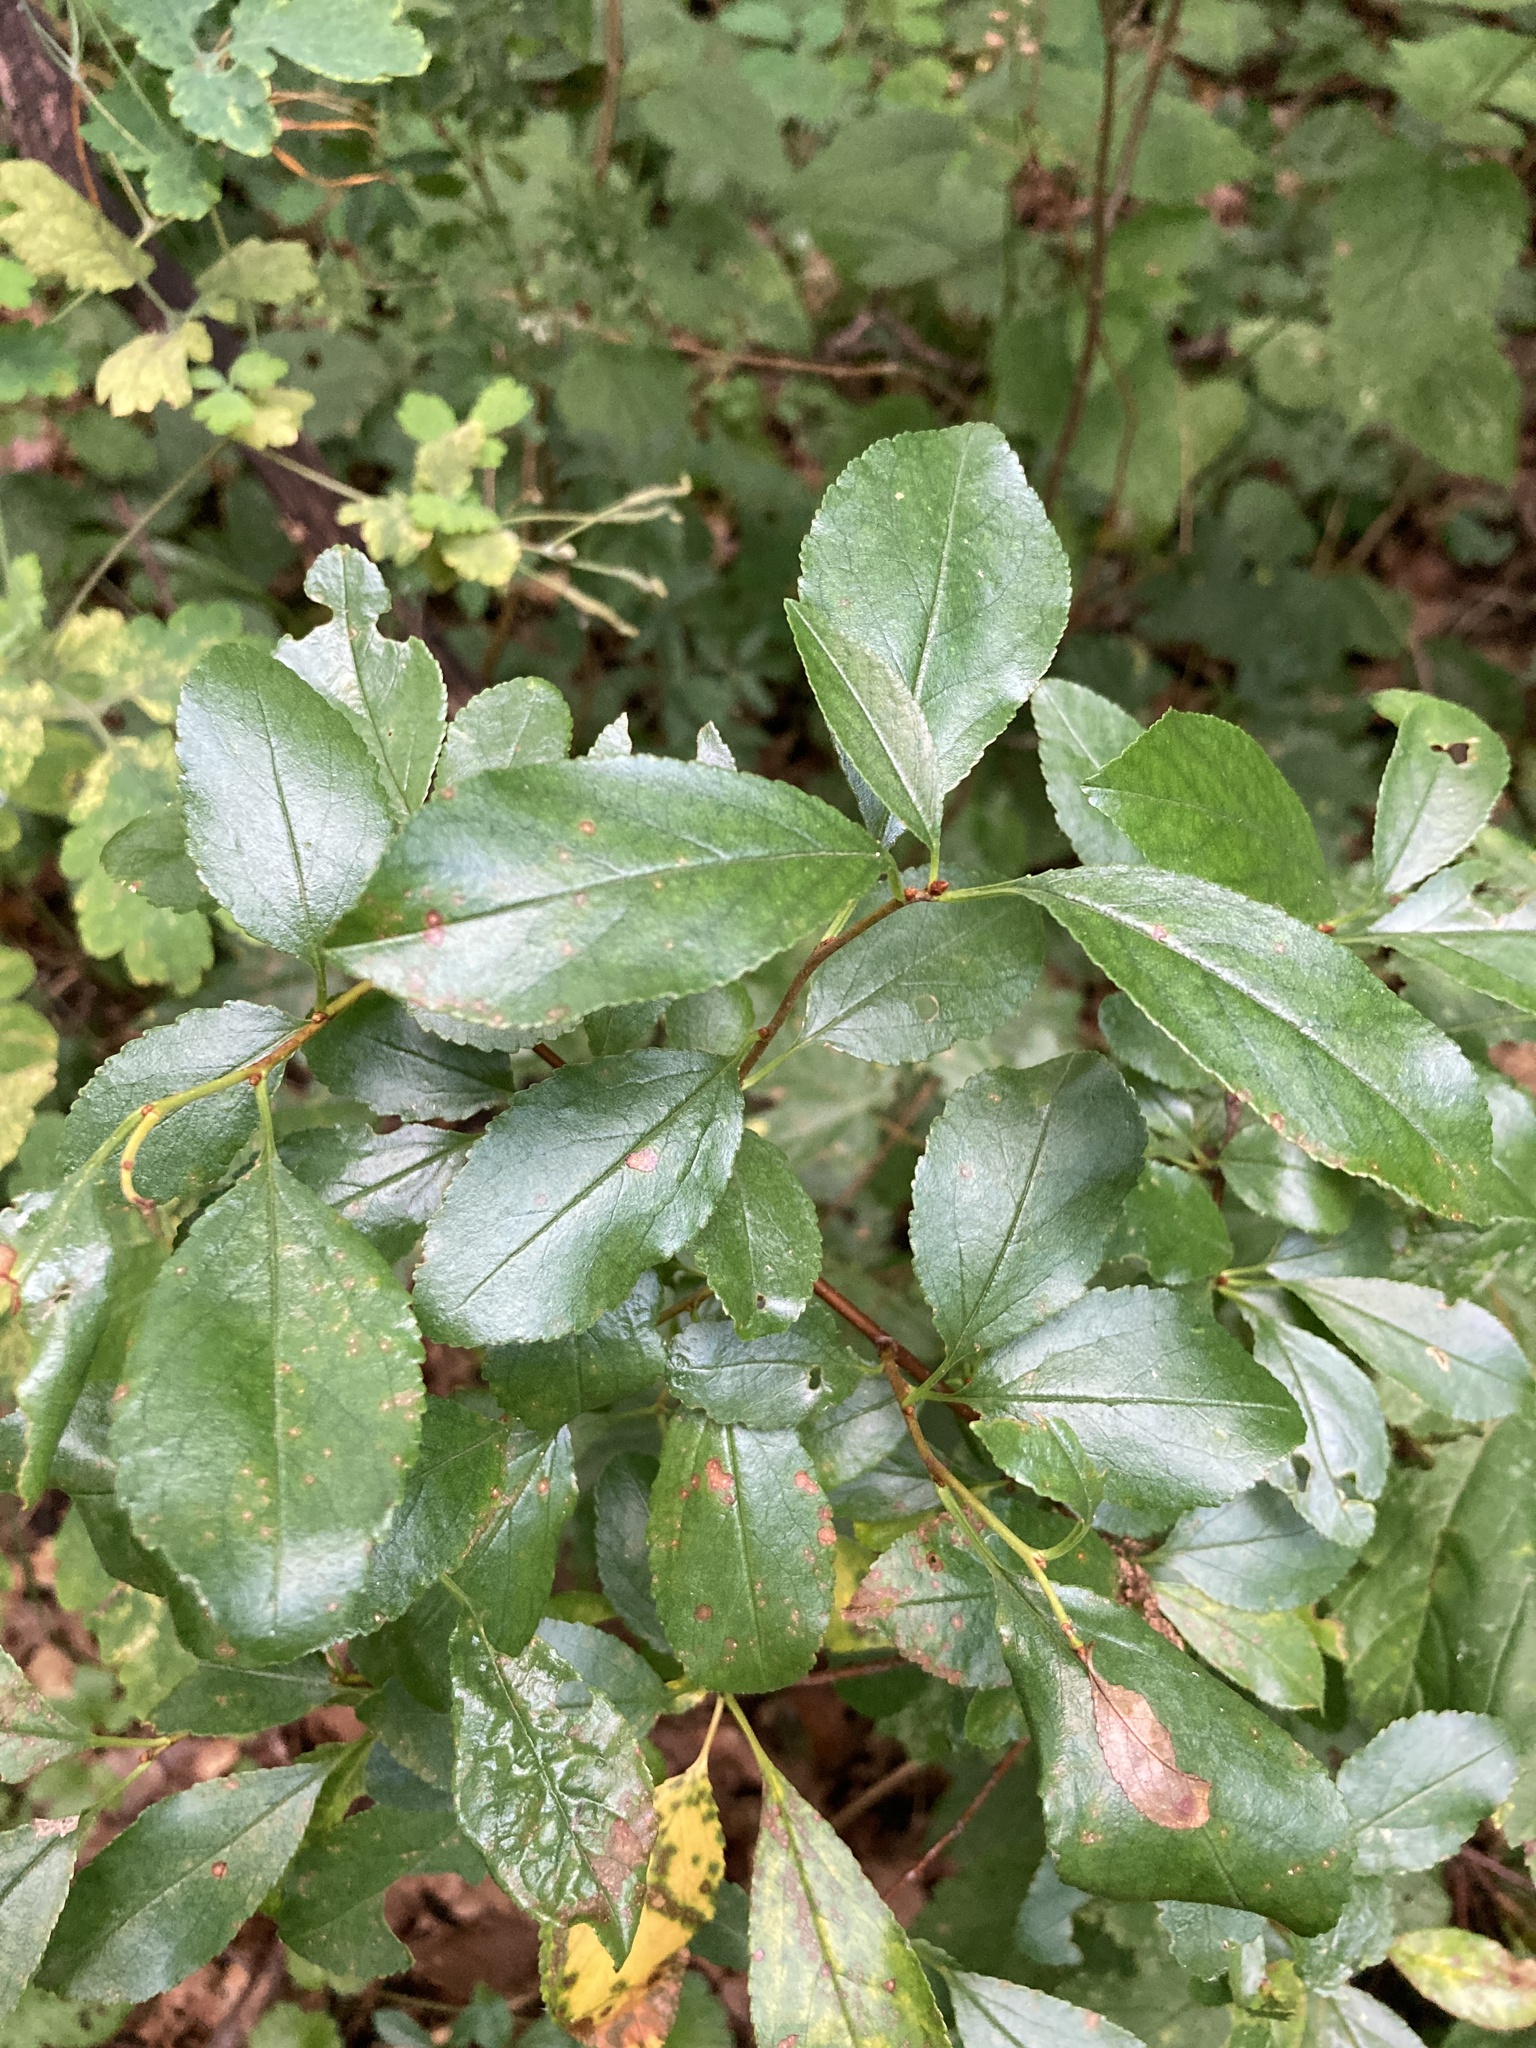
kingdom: Plantae
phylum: Tracheophyta
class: Magnoliopsida
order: Rosales
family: Rosaceae
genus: Prunus
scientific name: Prunus fruticosa
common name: European dwarf cherry
